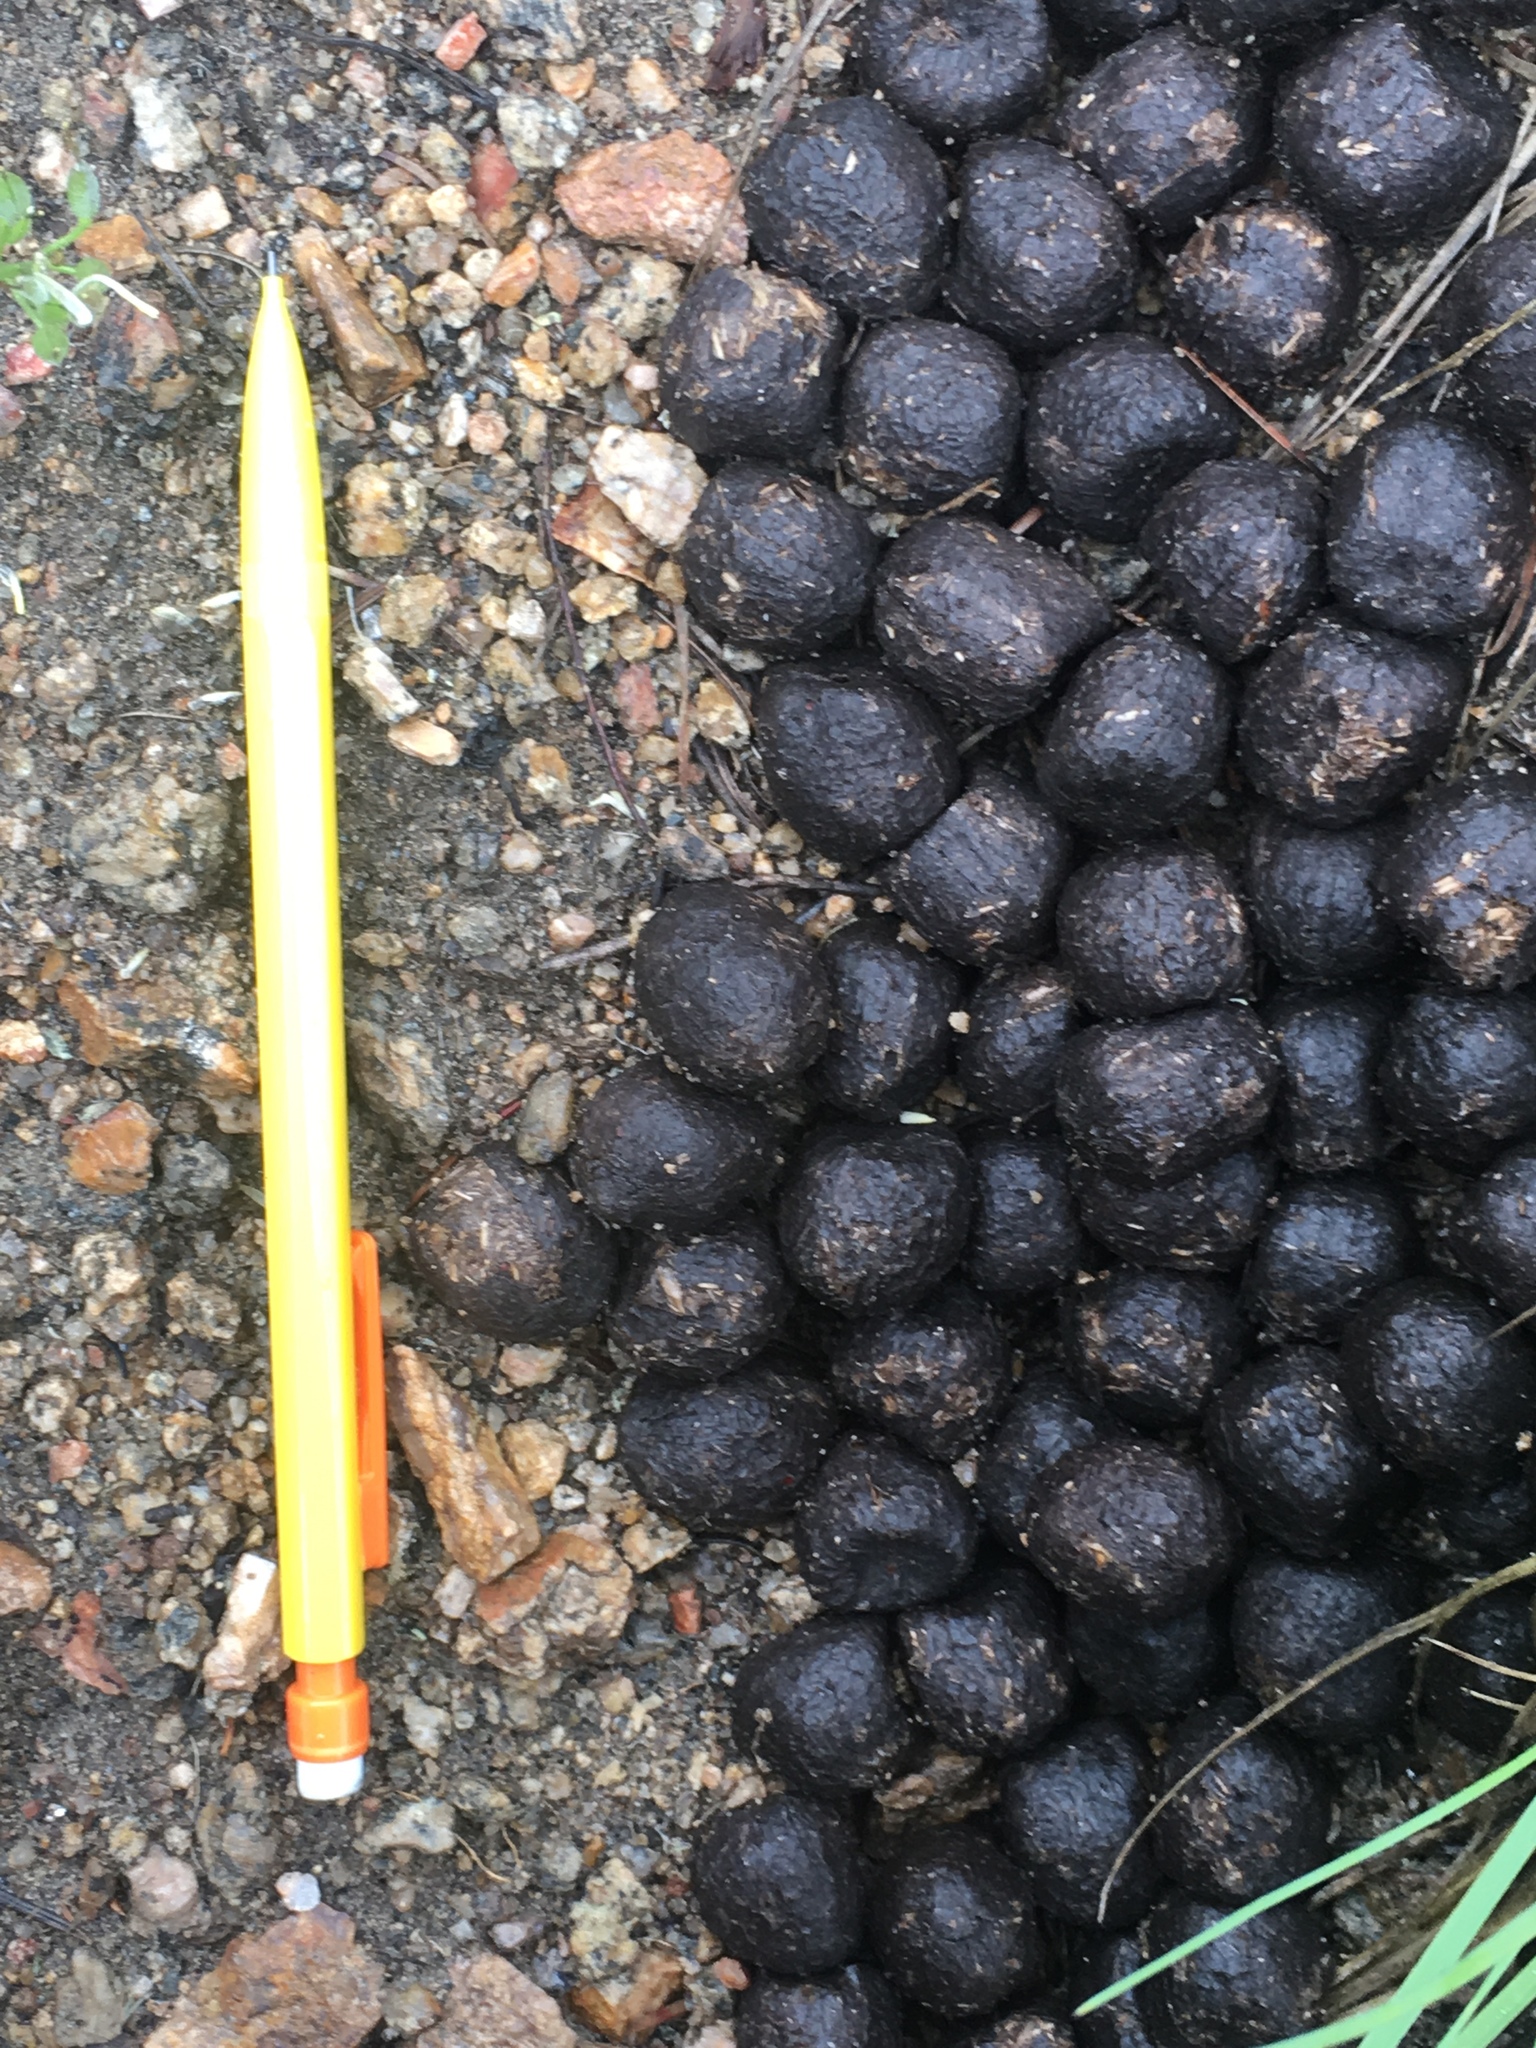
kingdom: Animalia
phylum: Chordata
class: Mammalia
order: Artiodactyla
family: Cervidae
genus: Cervus
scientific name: Cervus elaphus
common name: Red deer
